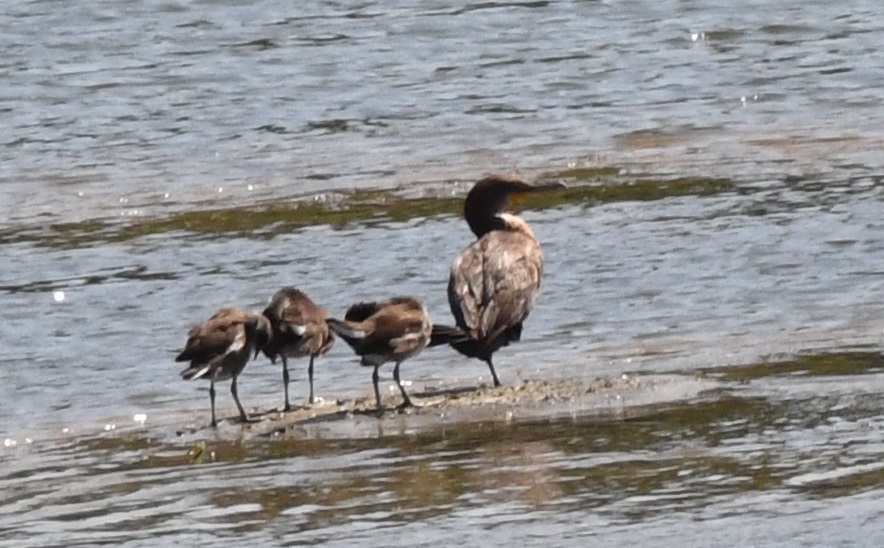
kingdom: Animalia
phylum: Chordata
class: Aves
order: Suliformes
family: Phalacrocoracidae
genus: Phalacrocorax
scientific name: Phalacrocorax auritus
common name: Double-crested cormorant
